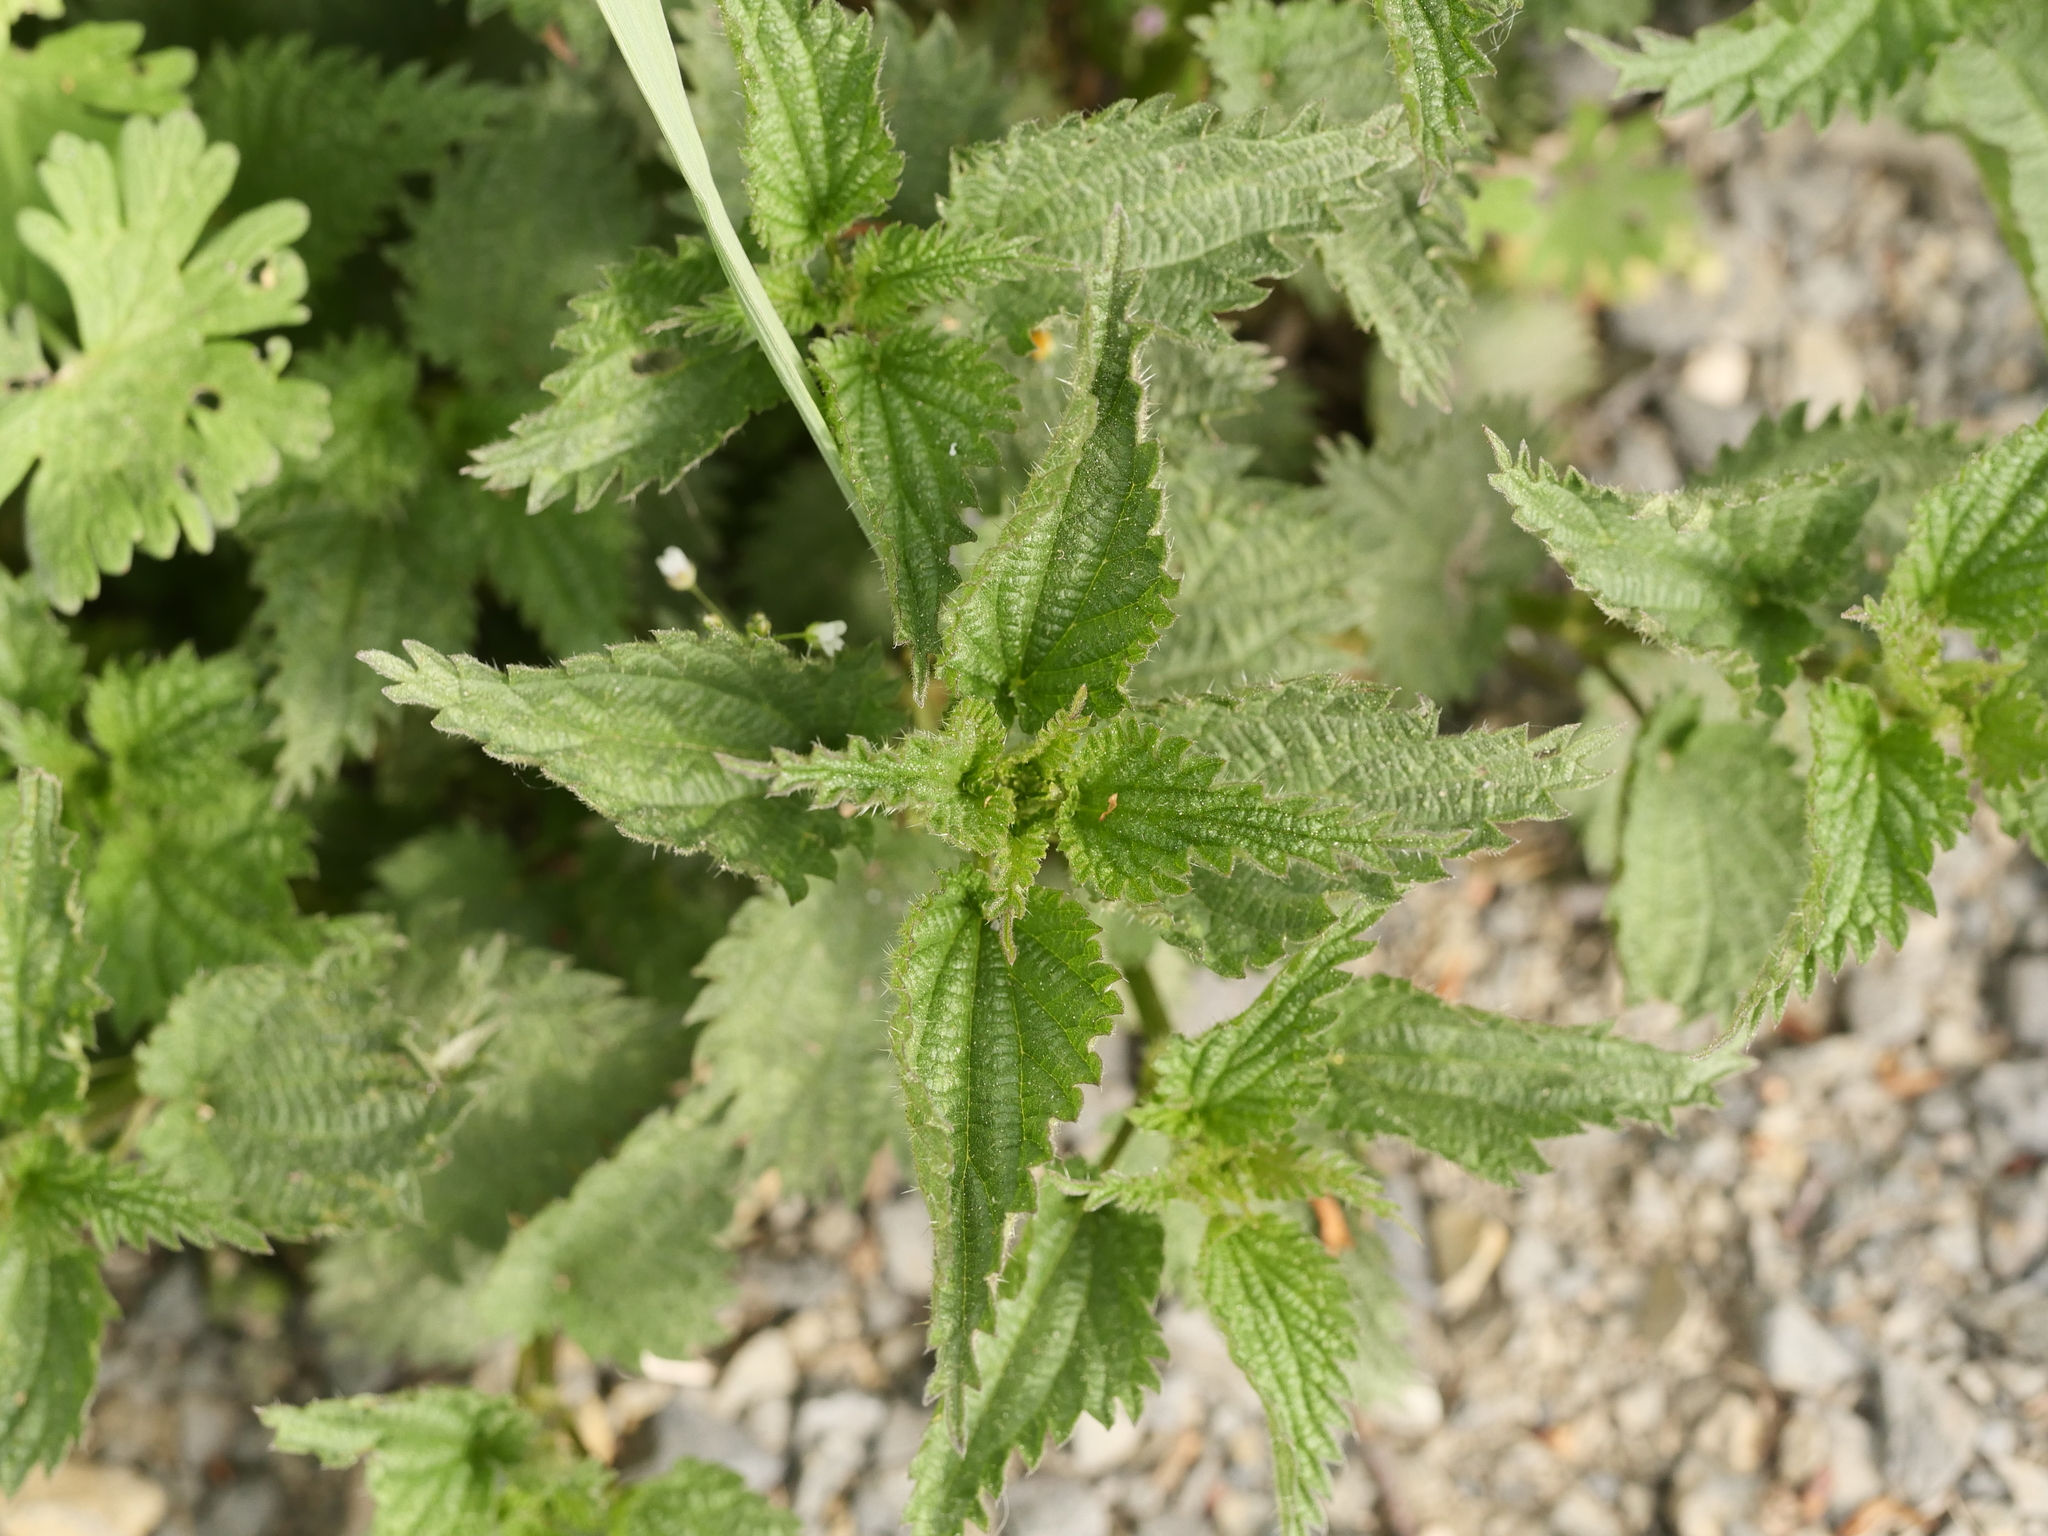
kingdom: Plantae
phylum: Tracheophyta
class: Magnoliopsida
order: Rosales
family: Urticaceae
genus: Urtica
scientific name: Urtica dioica
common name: Common nettle
